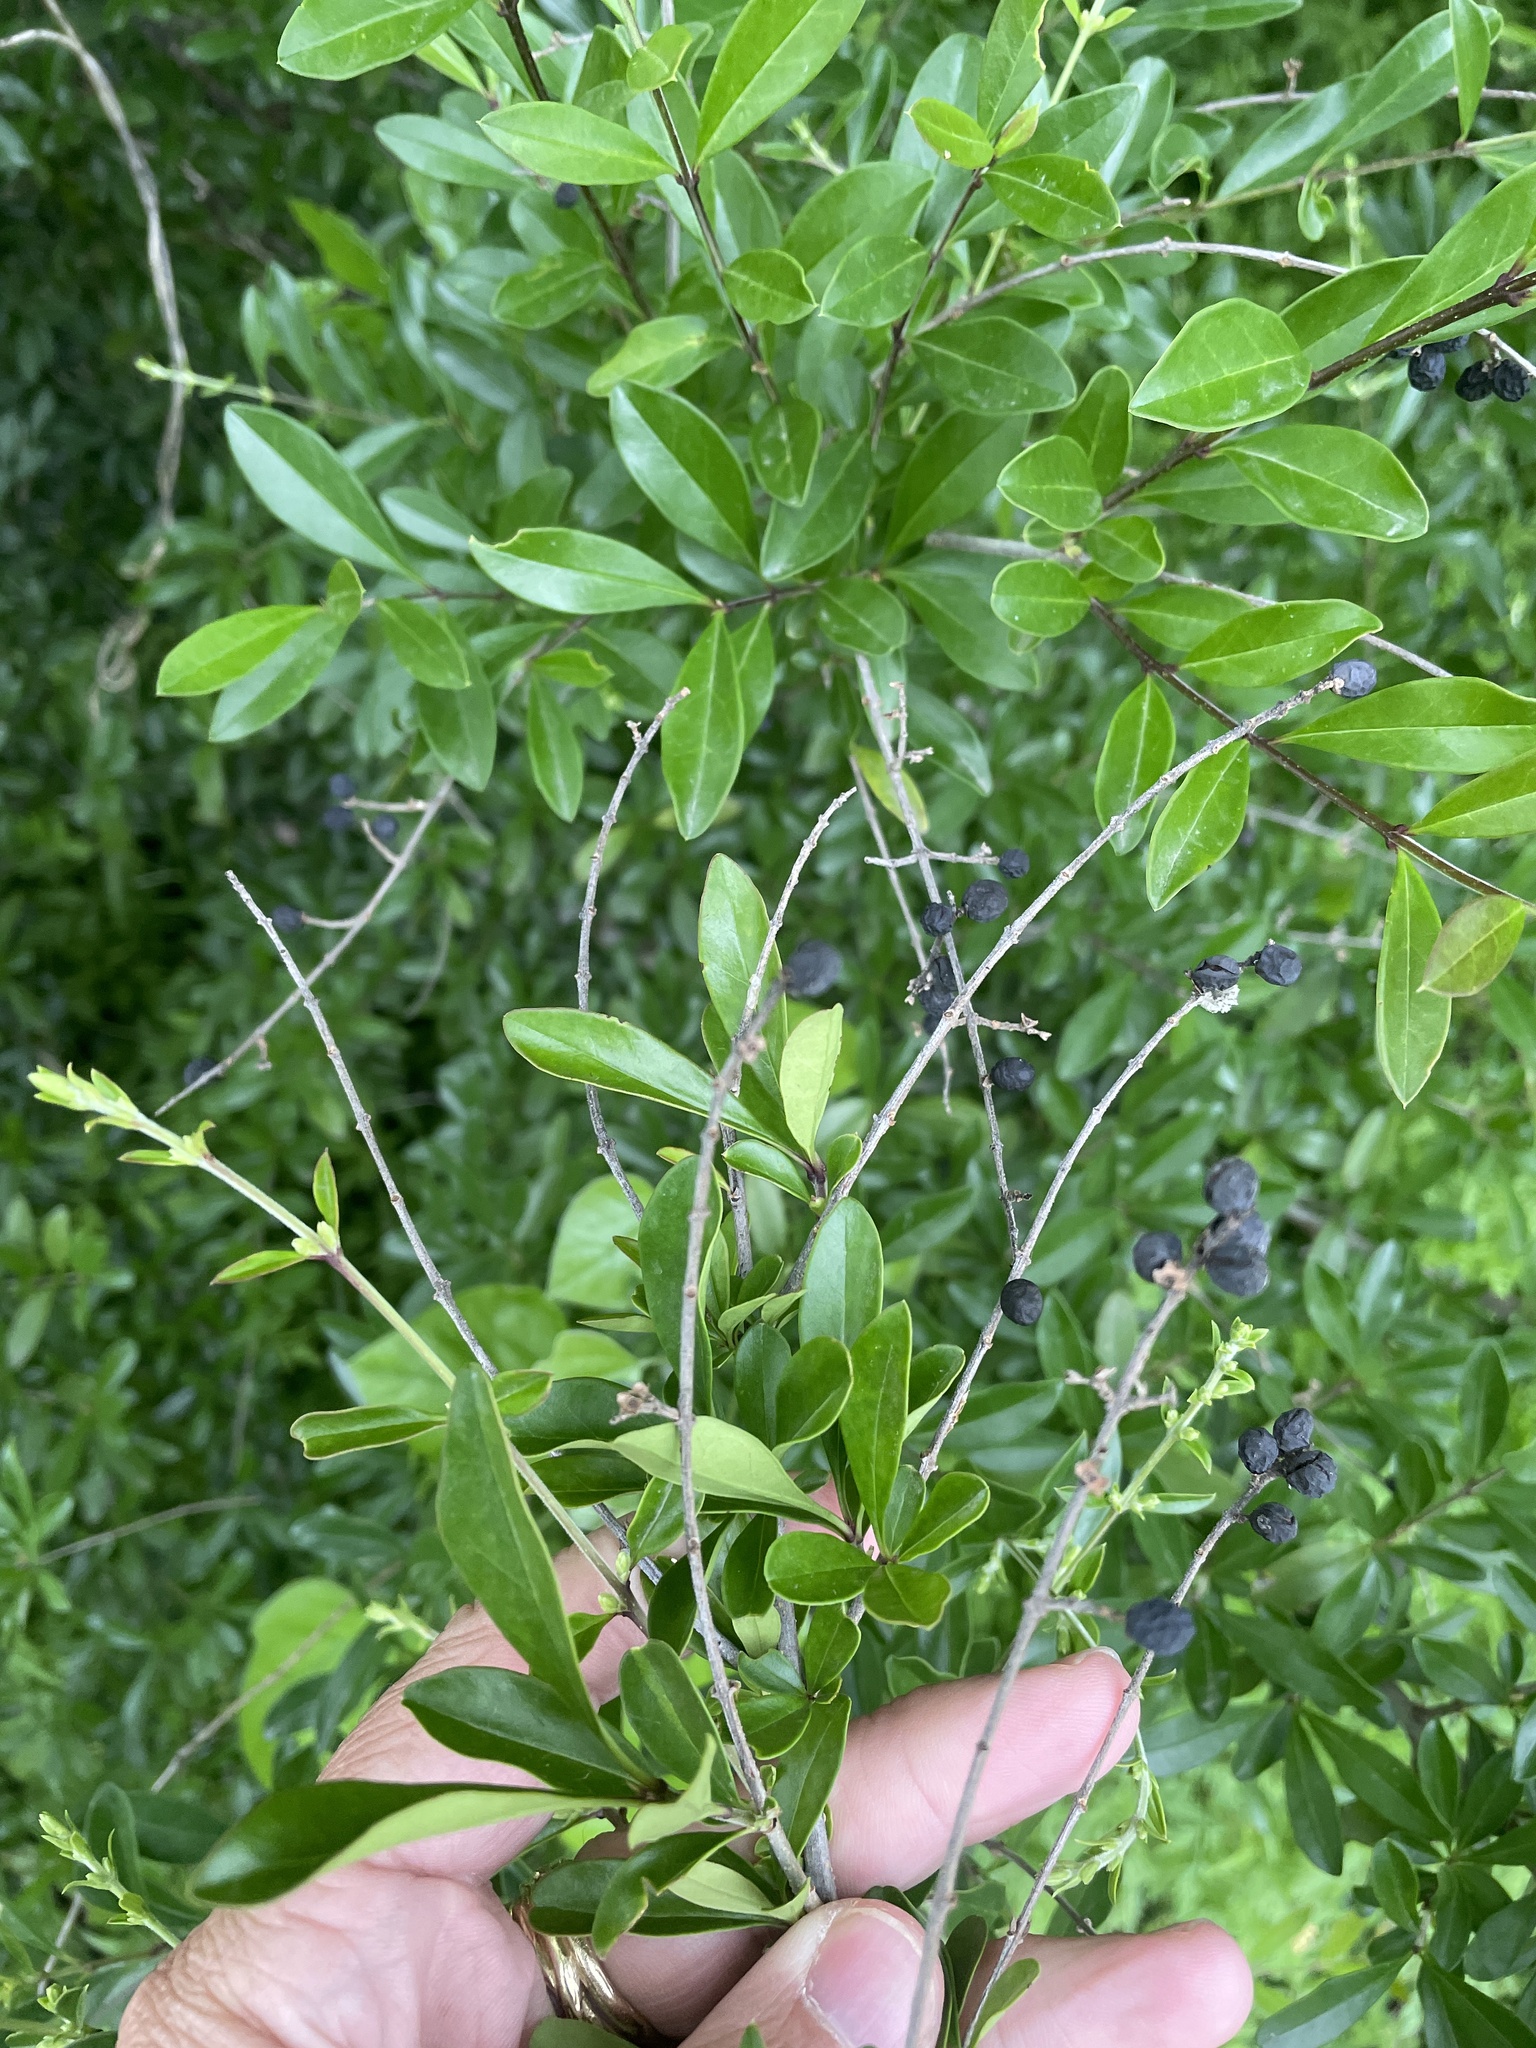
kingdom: Plantae
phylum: Tracheophyta
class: Magnoliopsida
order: Lamiales
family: Oleaceae
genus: Ligustrum
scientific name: Ligustrum quihoui
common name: Waxyleaf privet
